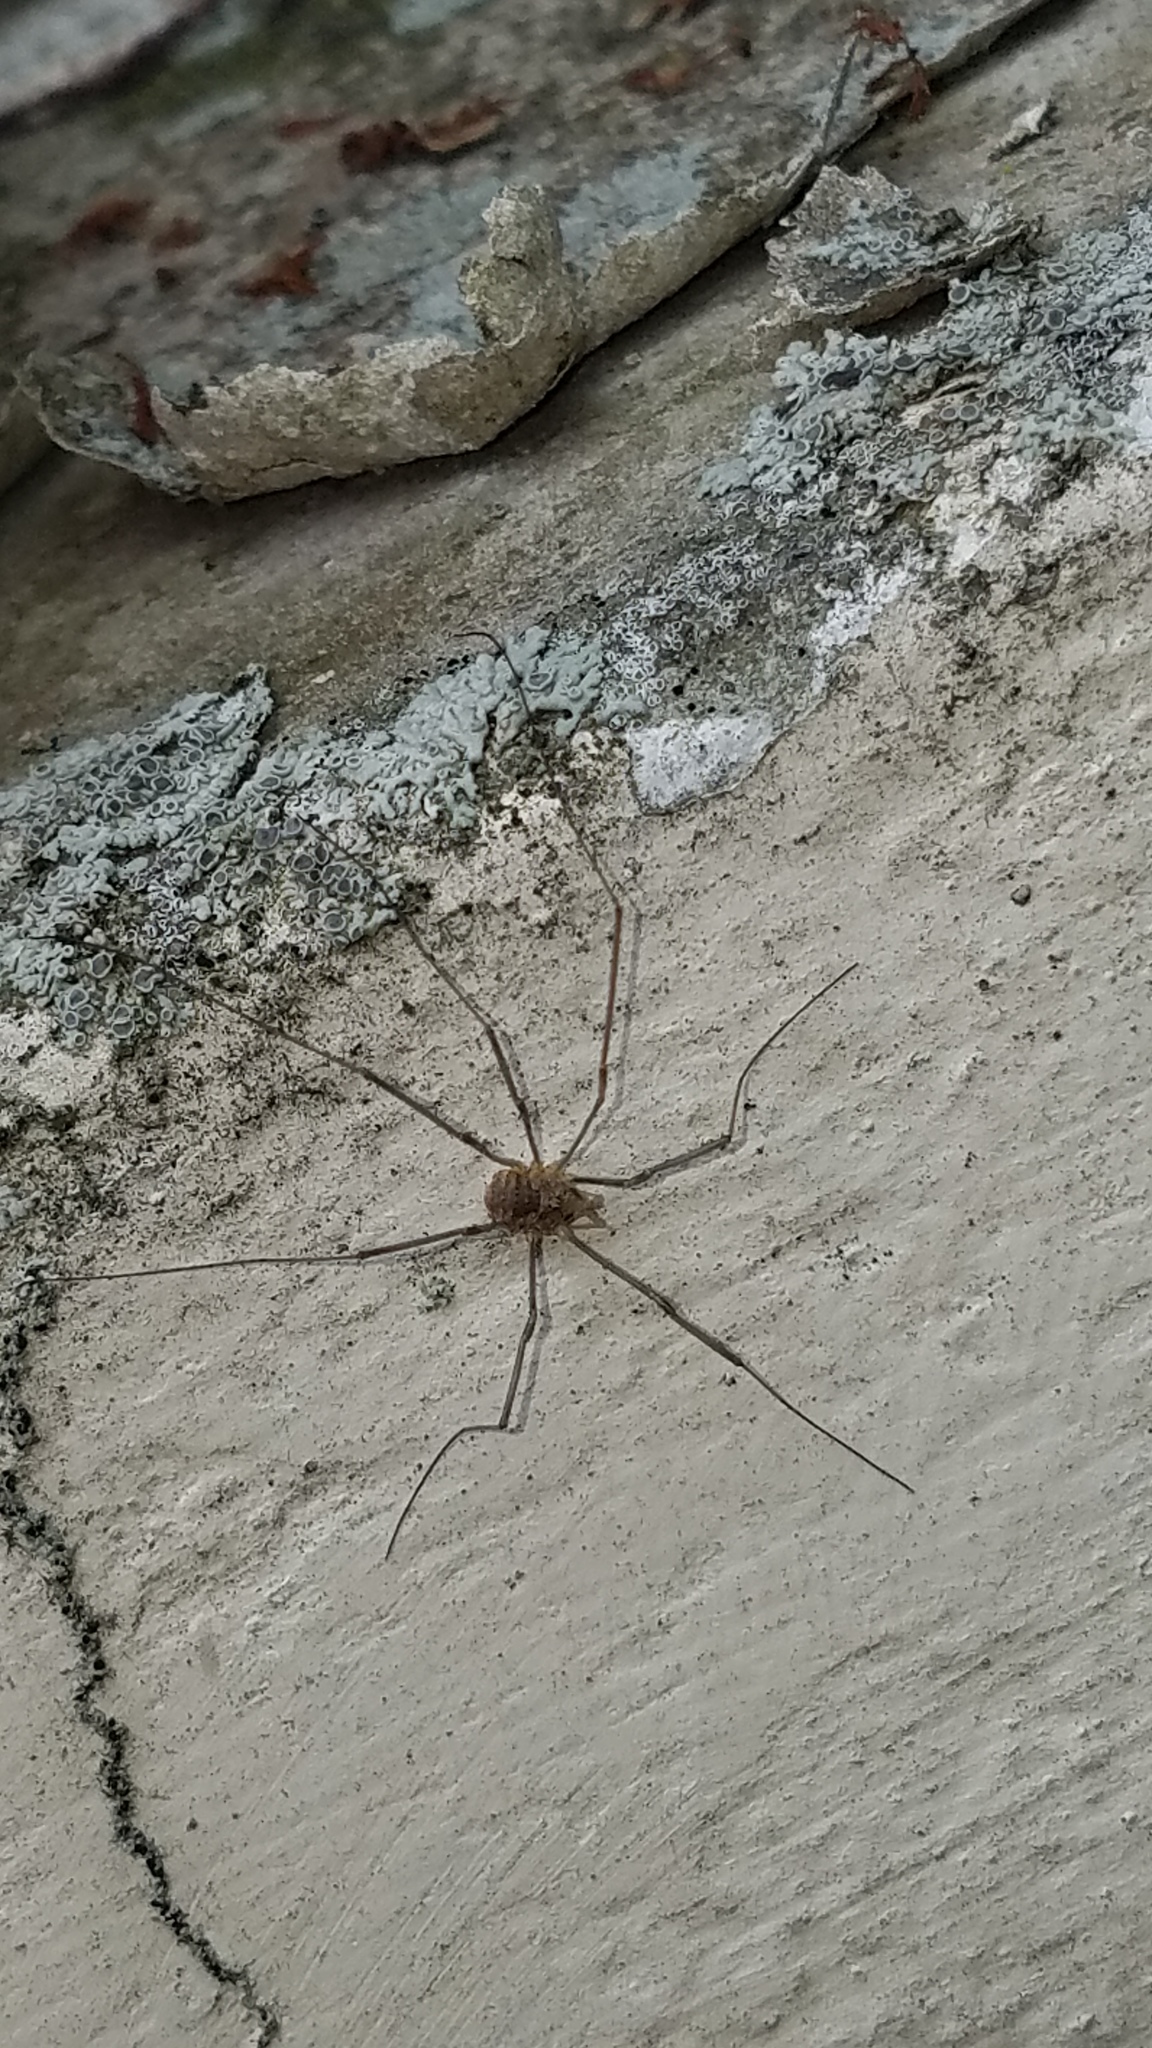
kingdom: Animalia
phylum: Arthropoda
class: Arachnida
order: Opiliones
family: Phalangiidae
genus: Phalangium
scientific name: Phalangium opilio
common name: Daddy longleg
